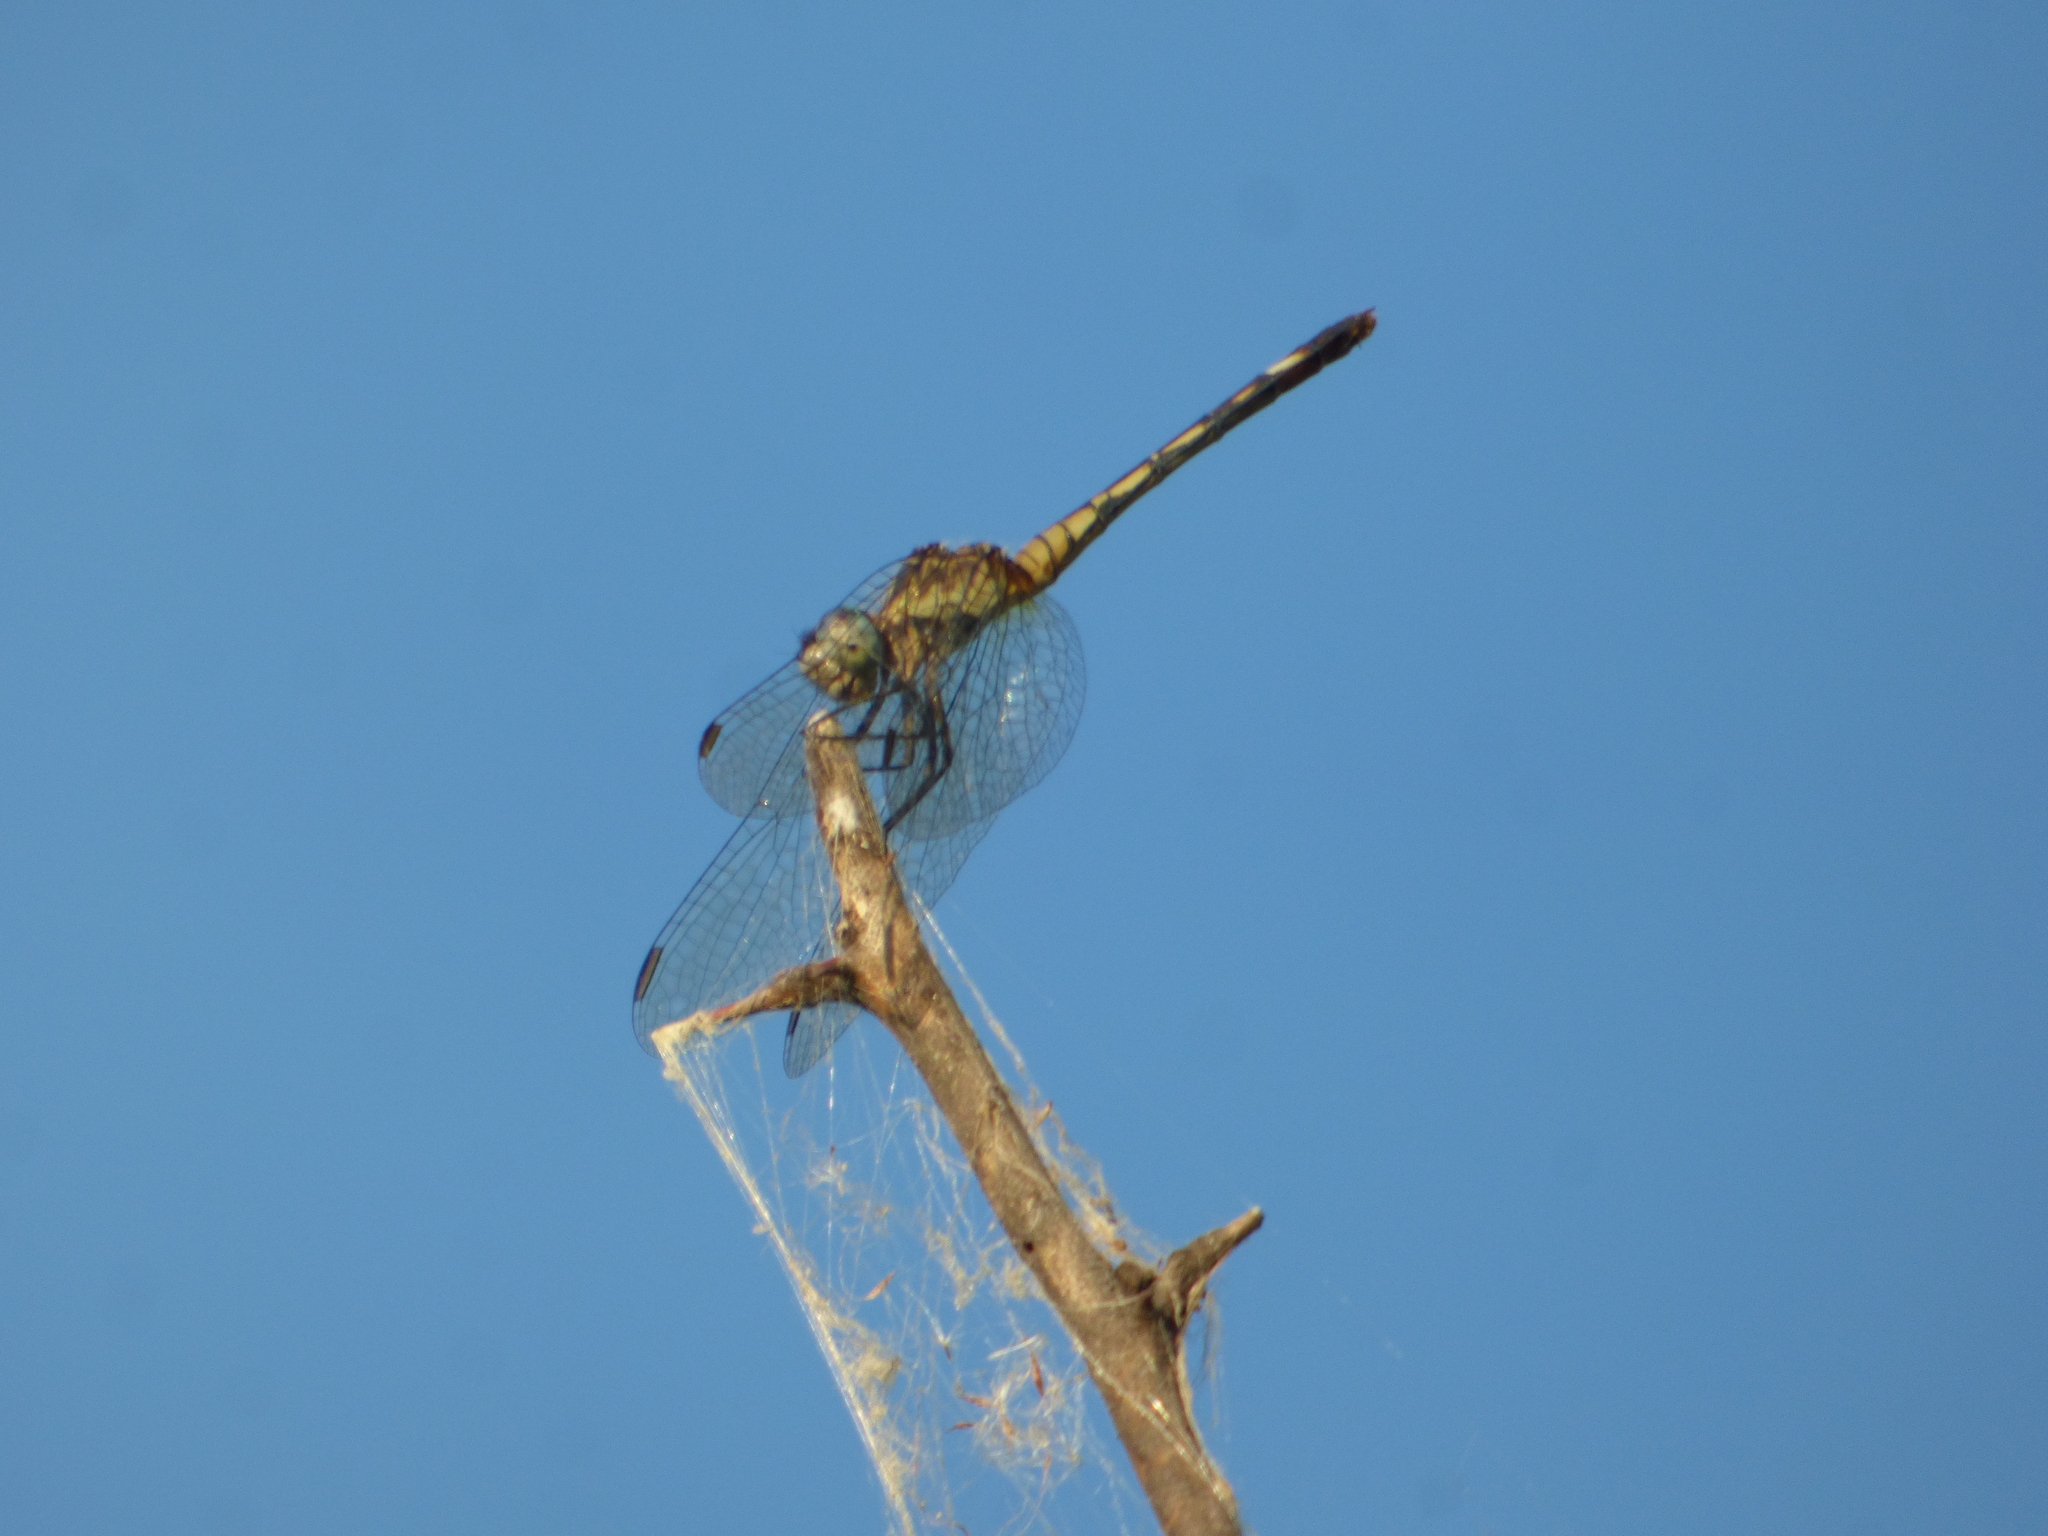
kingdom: Animalia
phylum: Arthropoda
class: Insecta
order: Odonata
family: Libellulidae
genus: Micrathyria
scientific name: Micrathyria longifasciata
